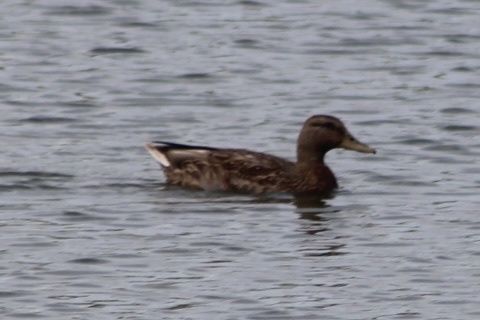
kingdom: Animalia
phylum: Chordata
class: Aves
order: Anseriformes
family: Anatidae
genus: Anas
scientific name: Anas platyrhynchos
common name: Mallard
